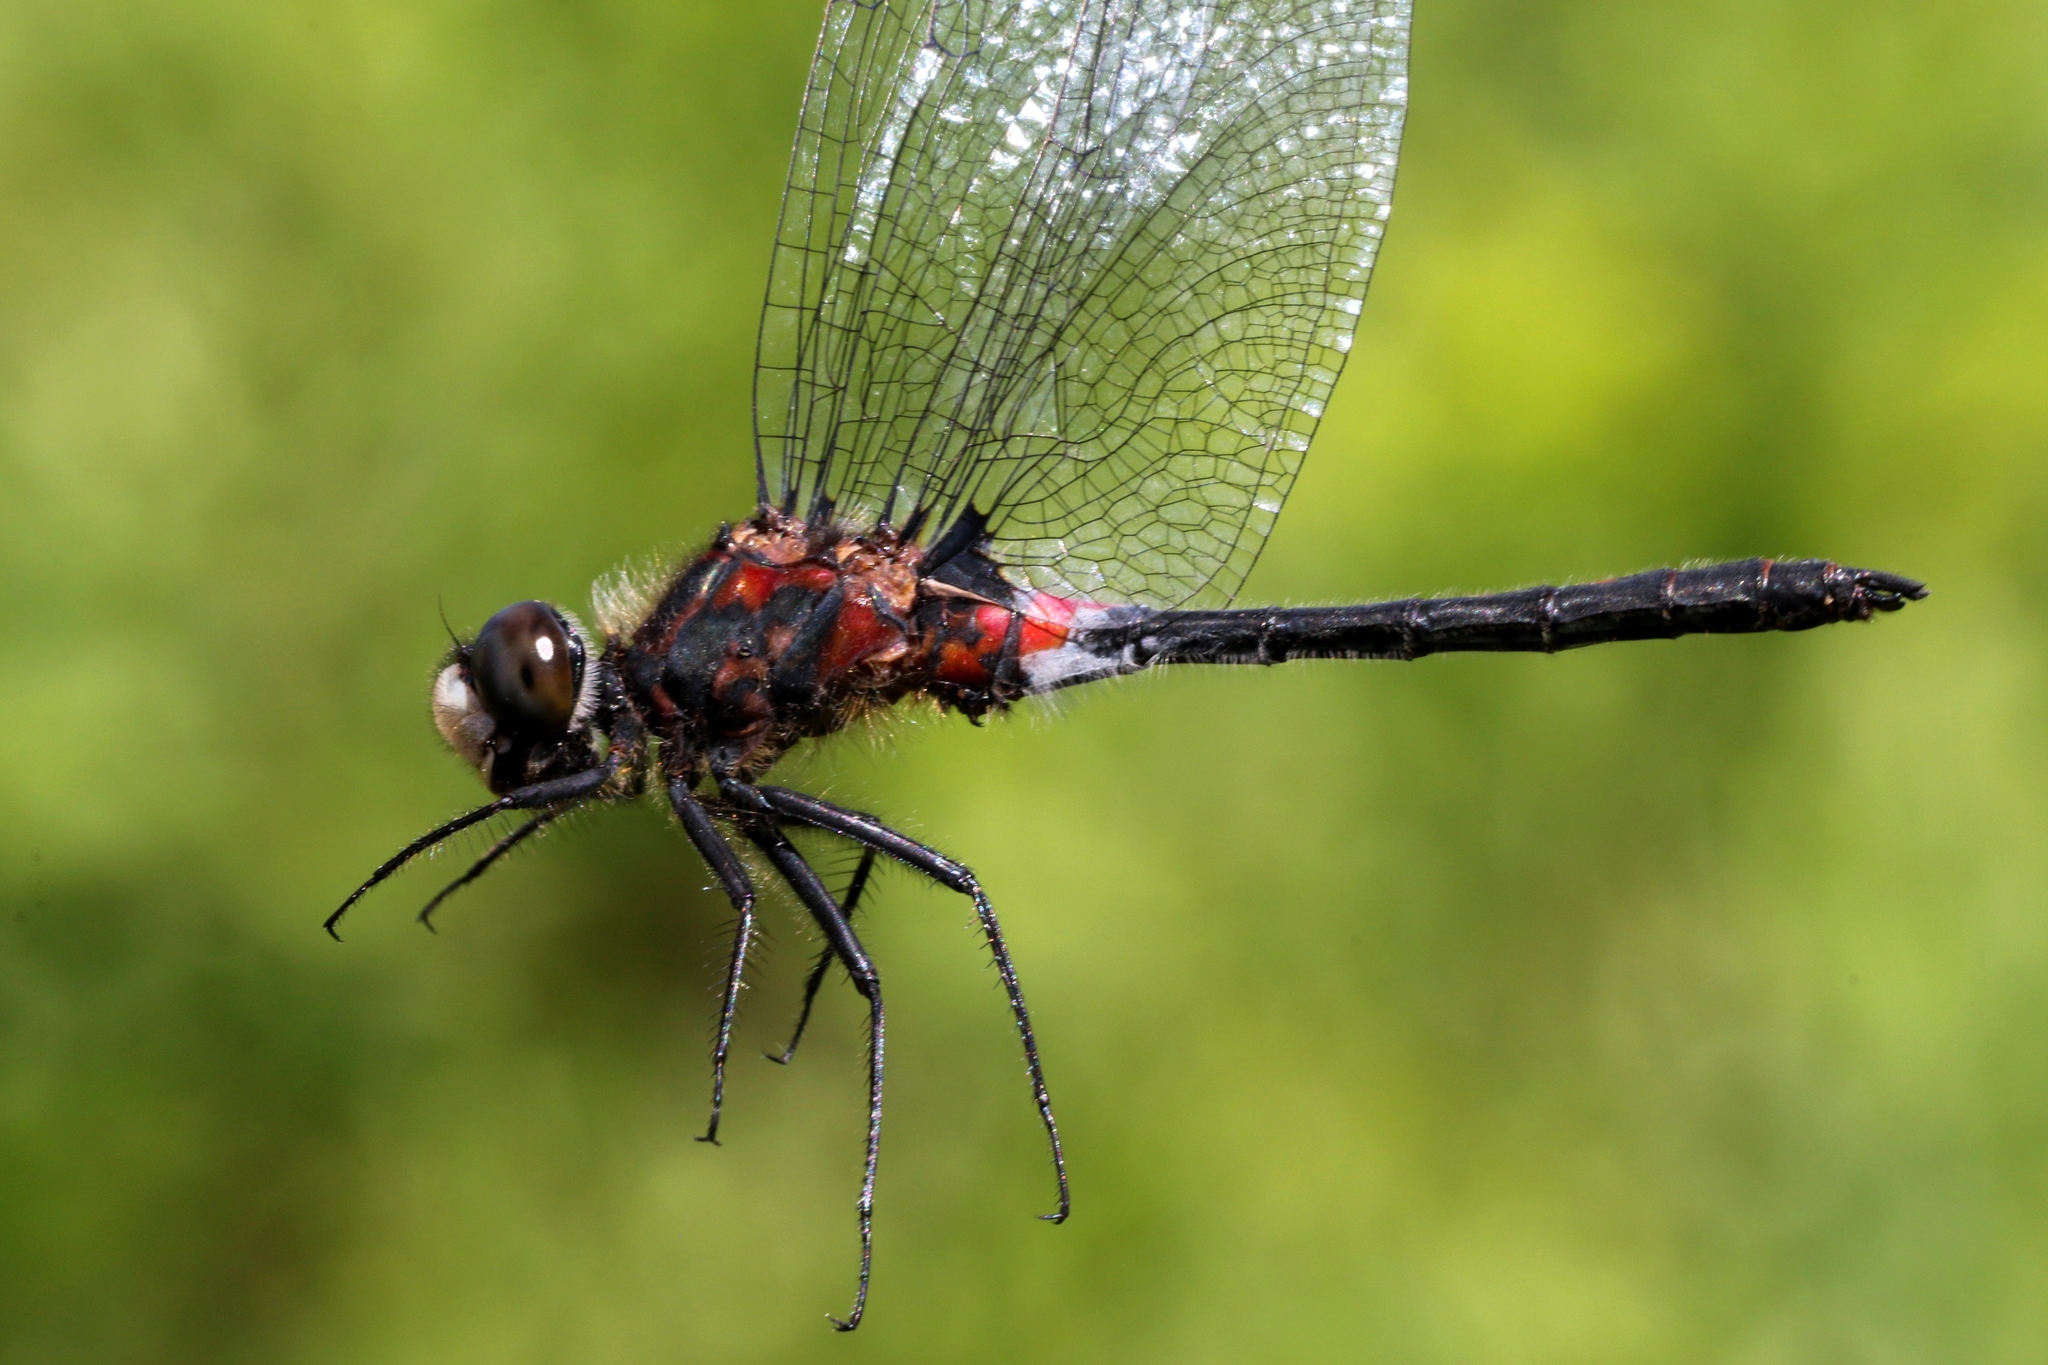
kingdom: Animalia
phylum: Arthropoda
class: Insecta
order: Odonata
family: Libellulidae
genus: Leucorrhinia
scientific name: Leucorrhinia proxima
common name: Belted whiteface
